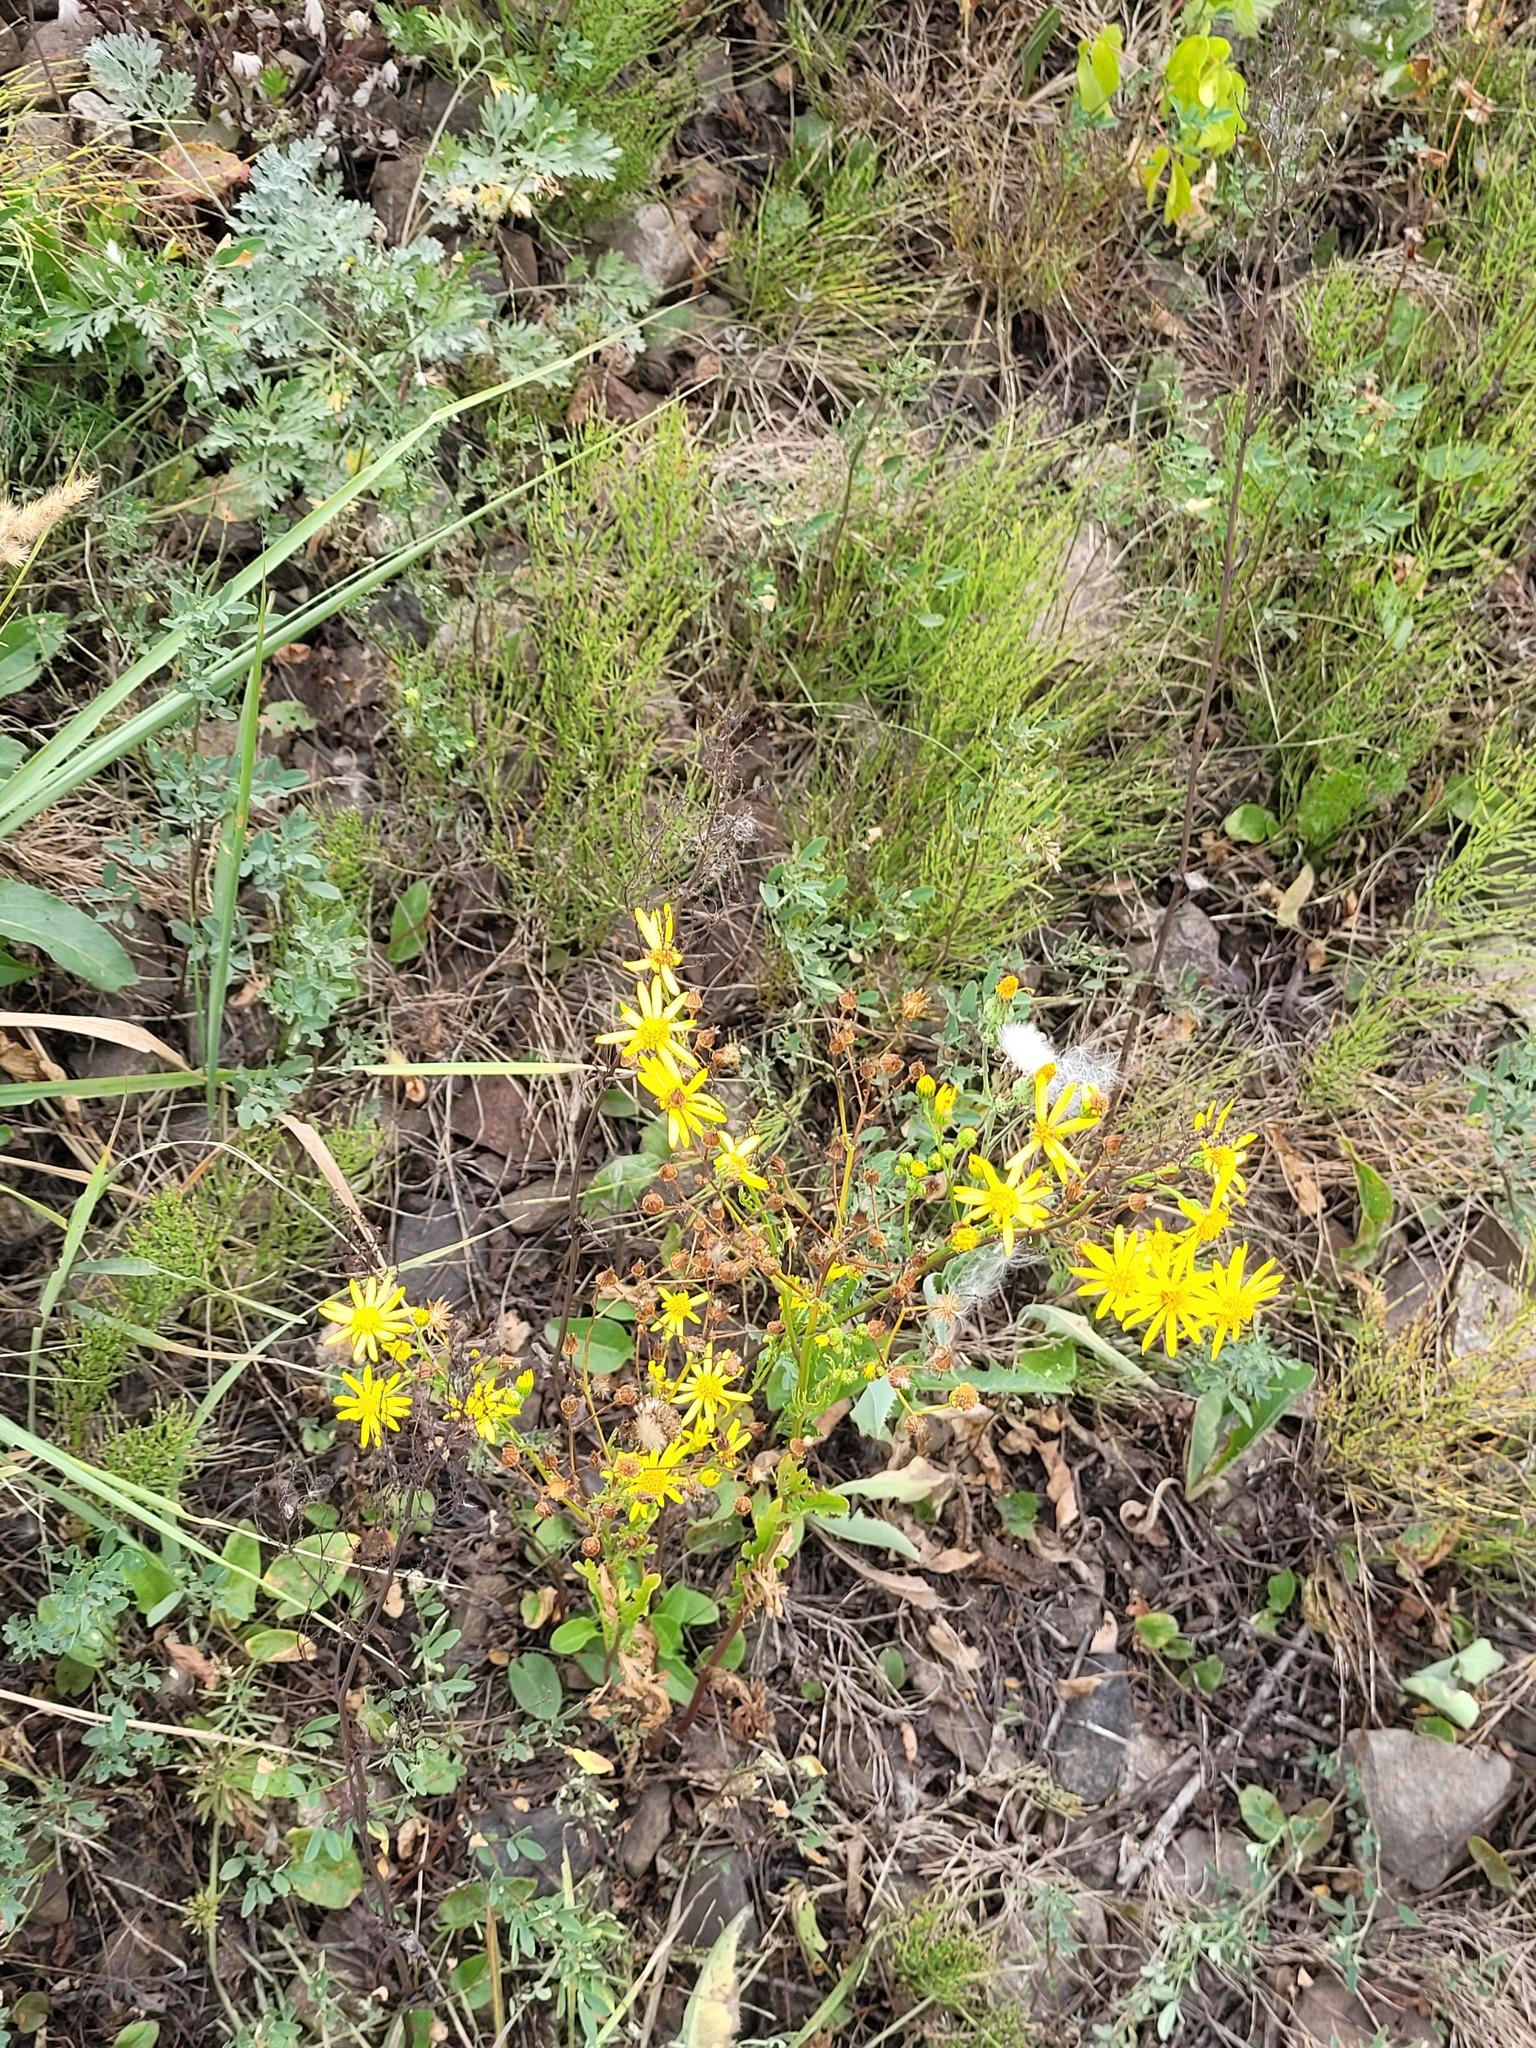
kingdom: Plantae
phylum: Tracheophyta
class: Magnoliopsida
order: Asterales
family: Asteraceae
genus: Jacobaea
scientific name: Jacobaea vulgaris
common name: Stinking willie
